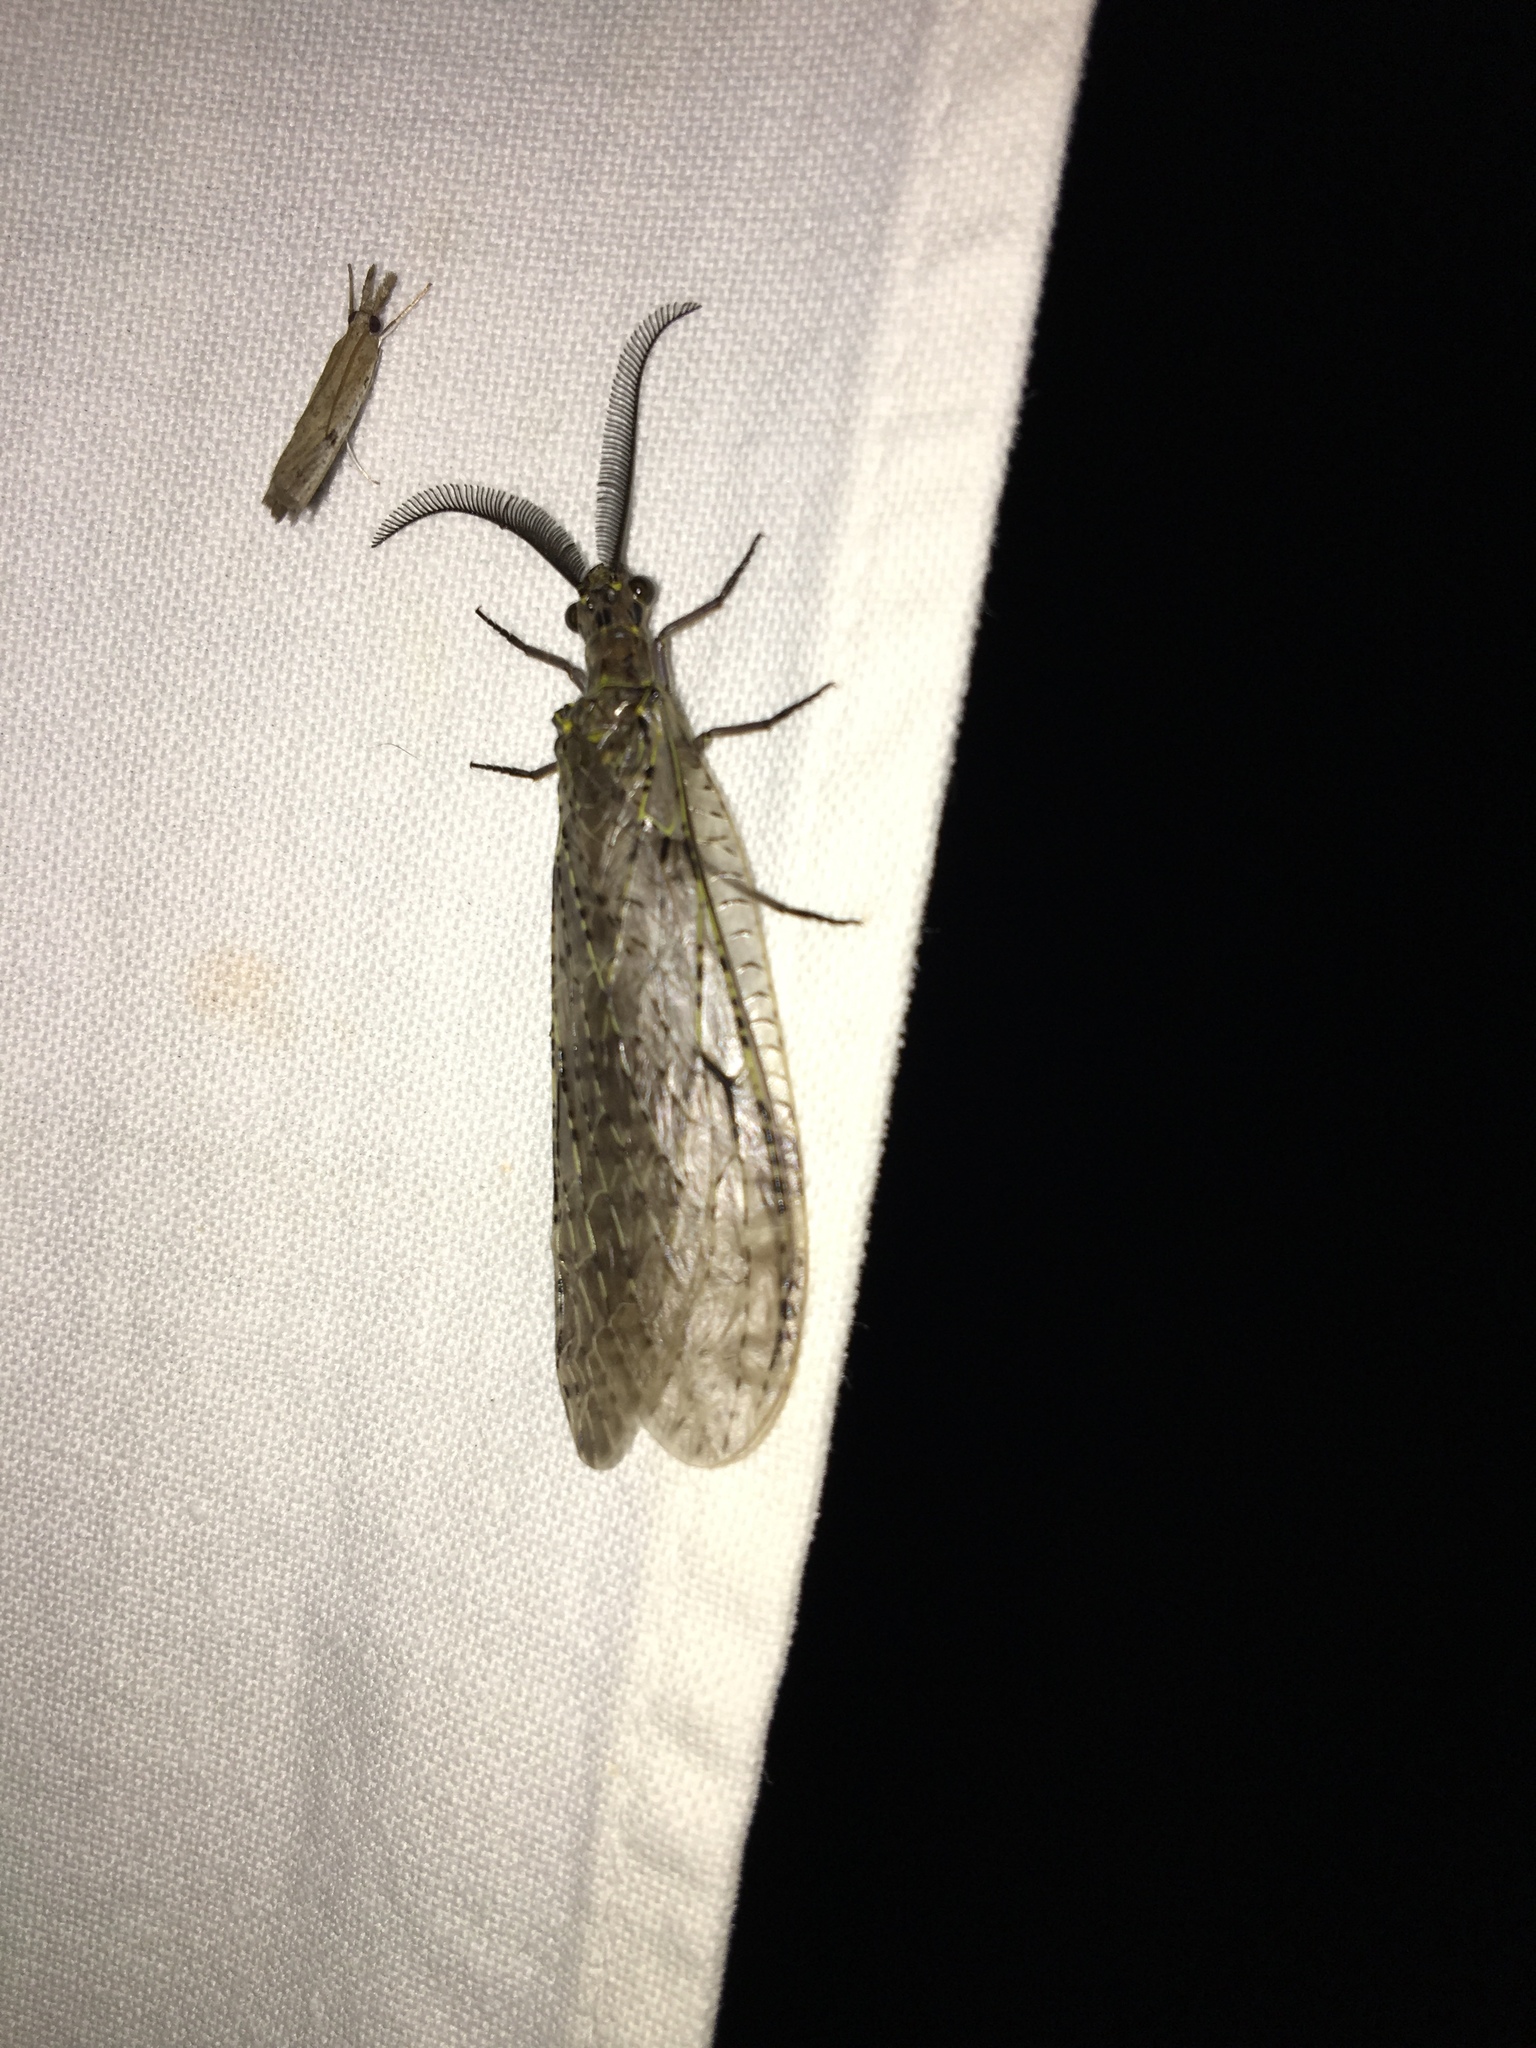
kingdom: Animalia
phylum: Arthropoda
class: Insecta
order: Megaloptera
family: Corydalidae
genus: Chauliodes
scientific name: Chauliodes rastricornis
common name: Spring fishfly
